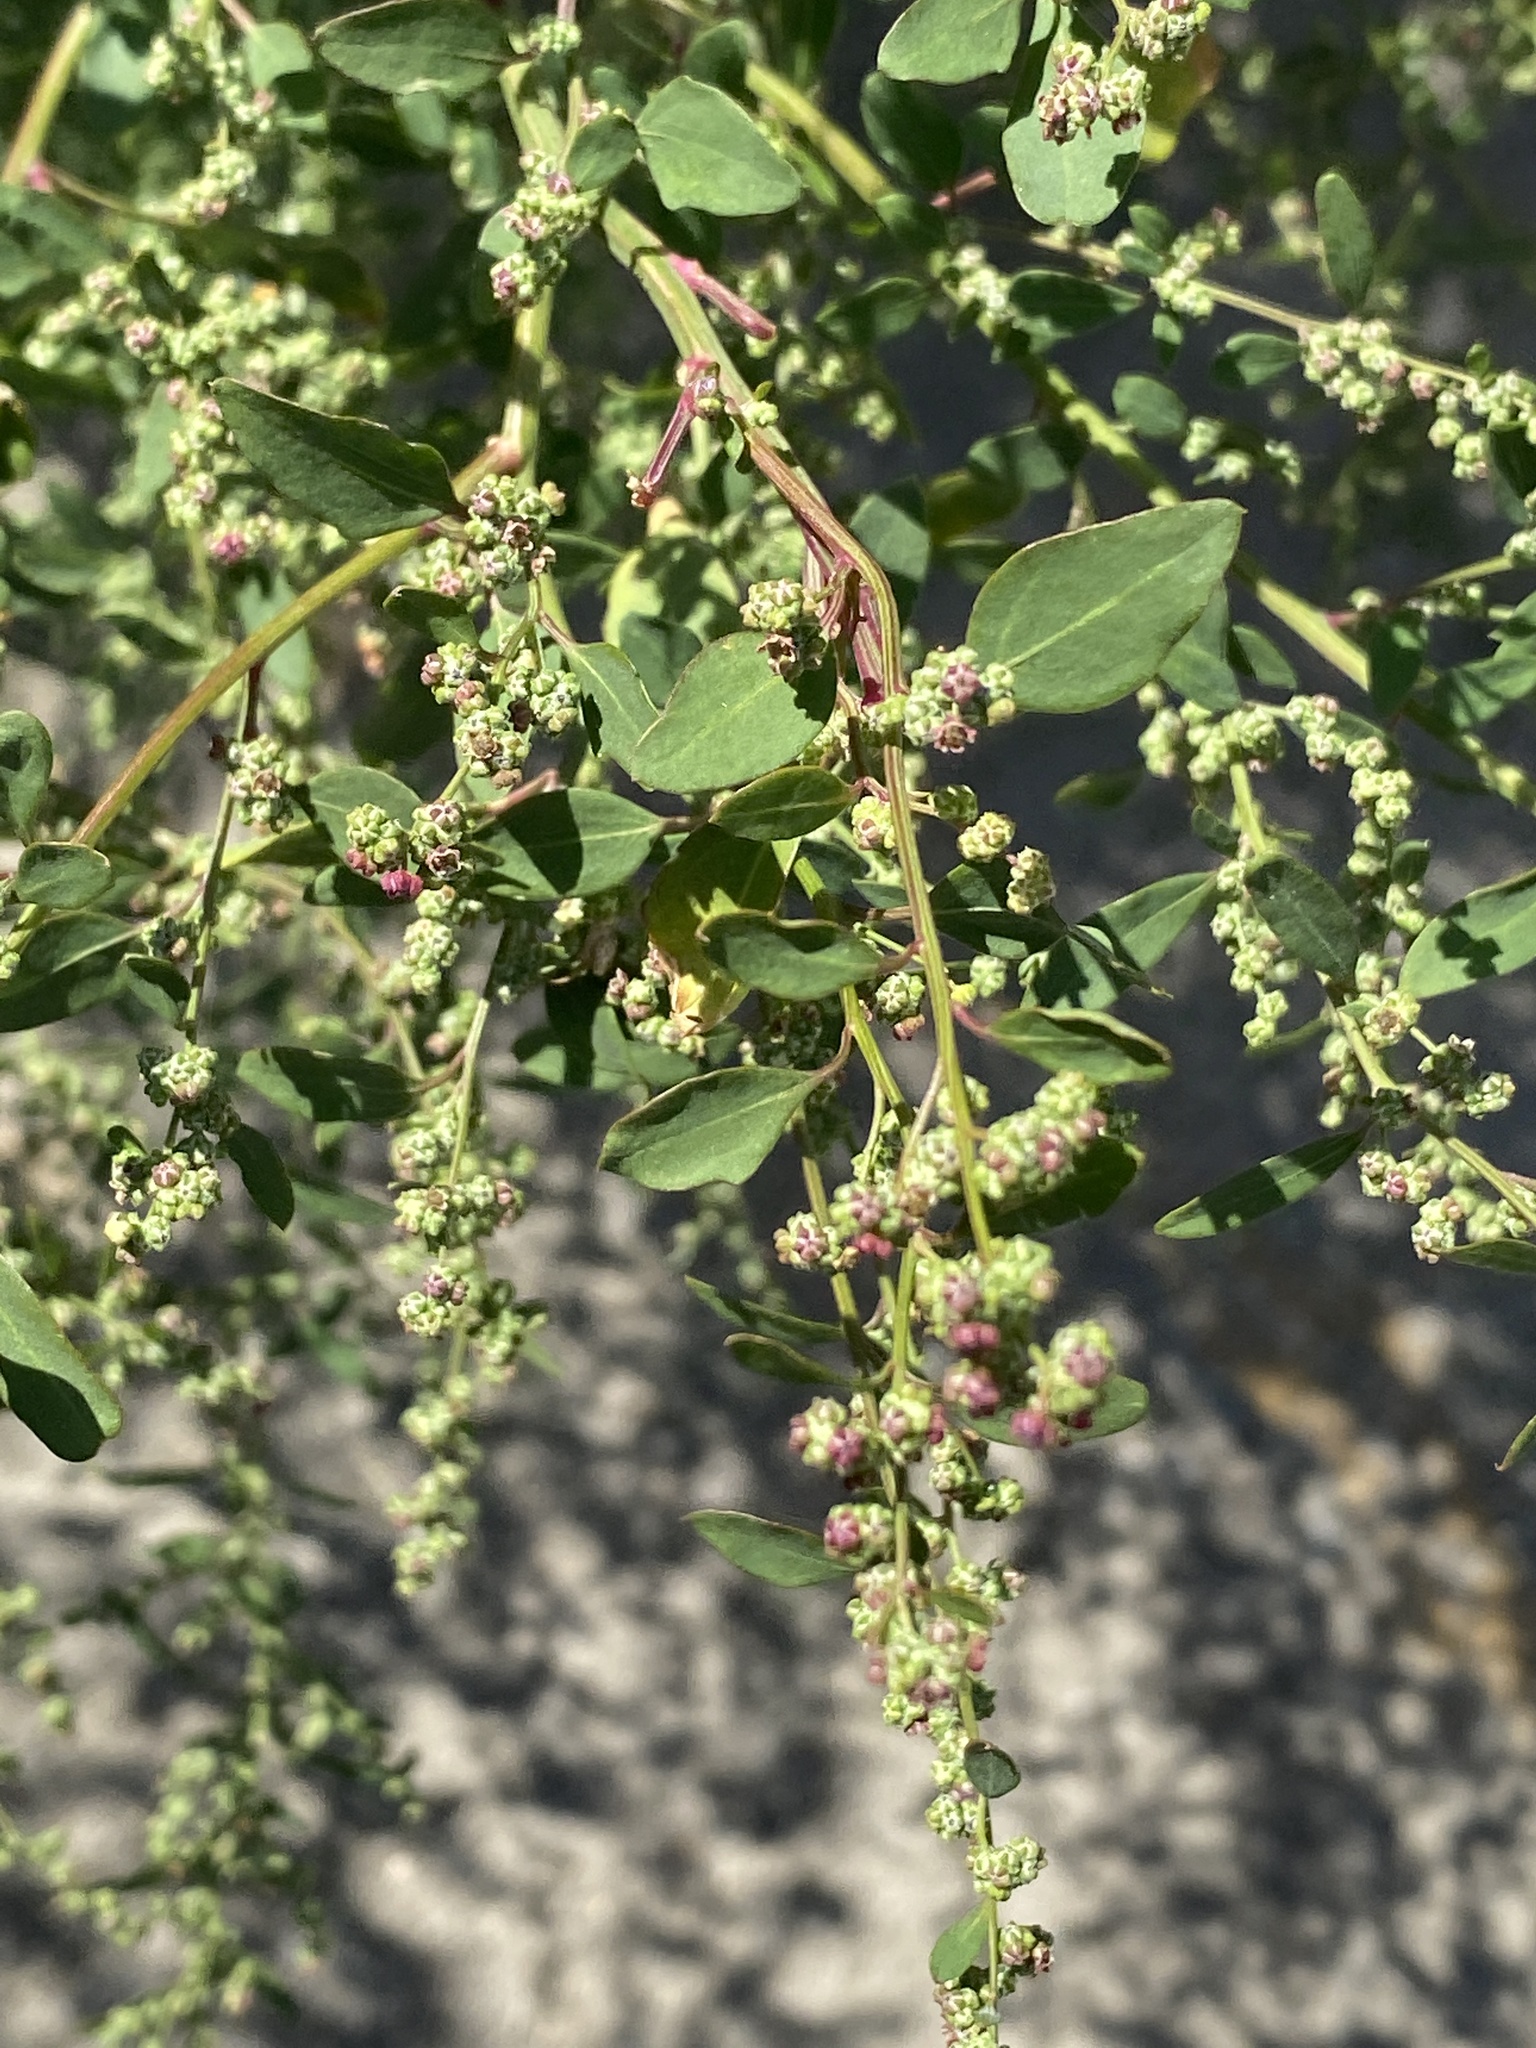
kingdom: Plantae
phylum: Tracheophyta
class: Magnoliopsida
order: Caryophyllales
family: Amaranthaceae
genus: Chenopodium
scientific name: Chenopodium album
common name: Fat-hen
